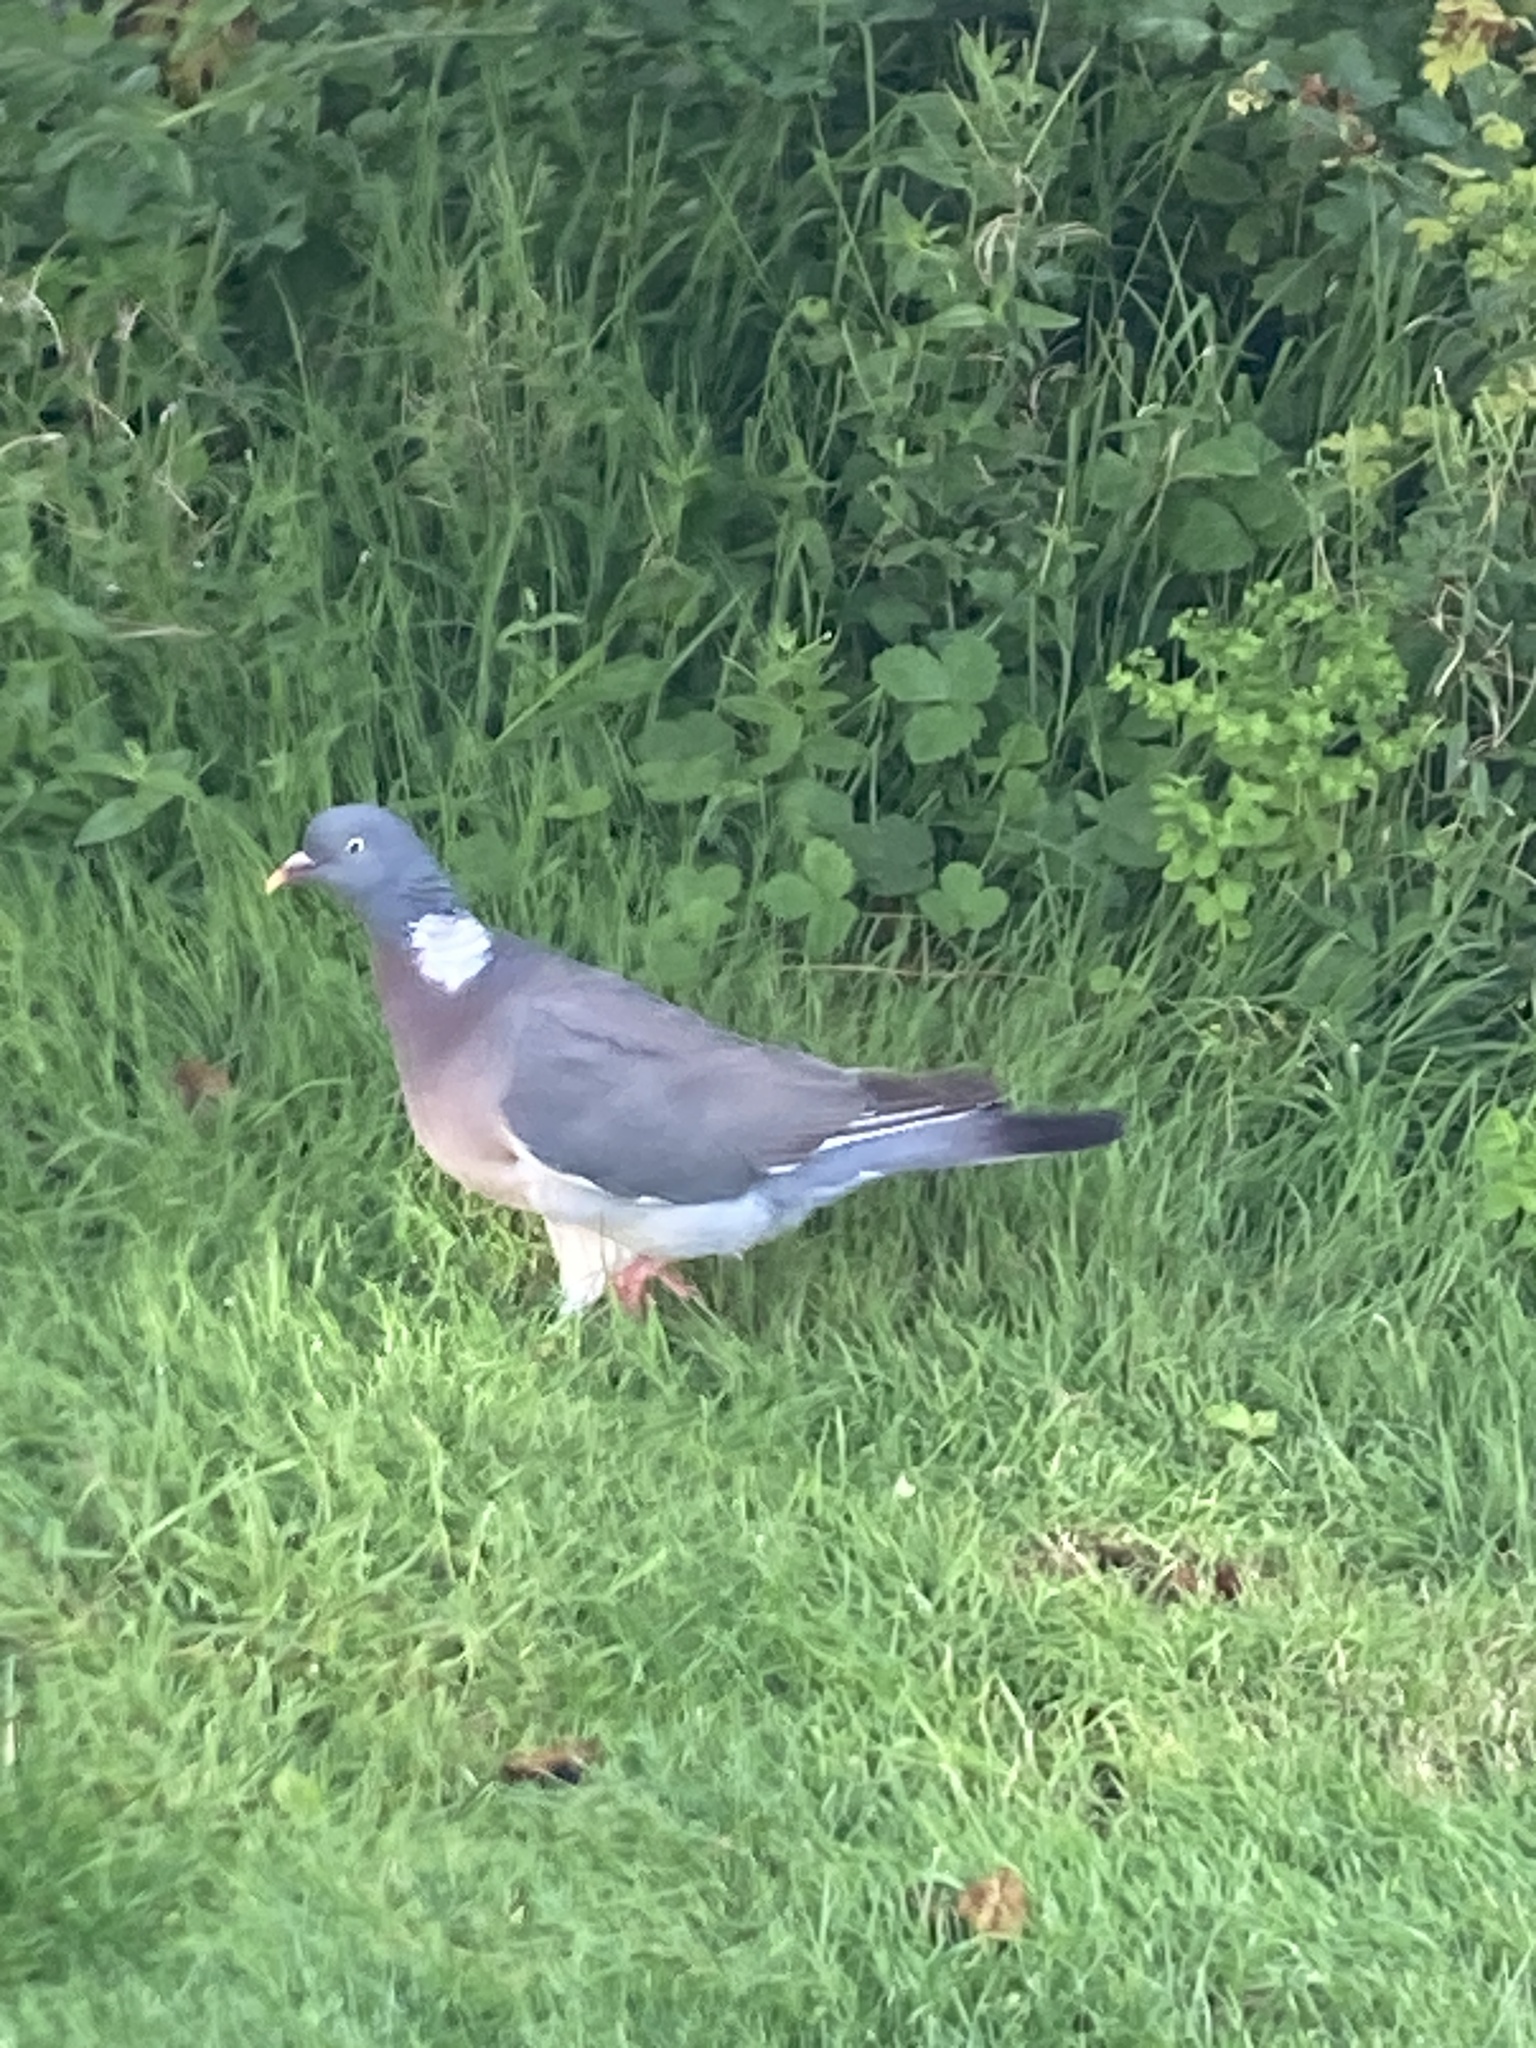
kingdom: Animalia
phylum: Chordata
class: Aves
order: Columbiformes
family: Columbidae
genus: Columba
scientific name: Columba palumbus
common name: Common wood pigeon
